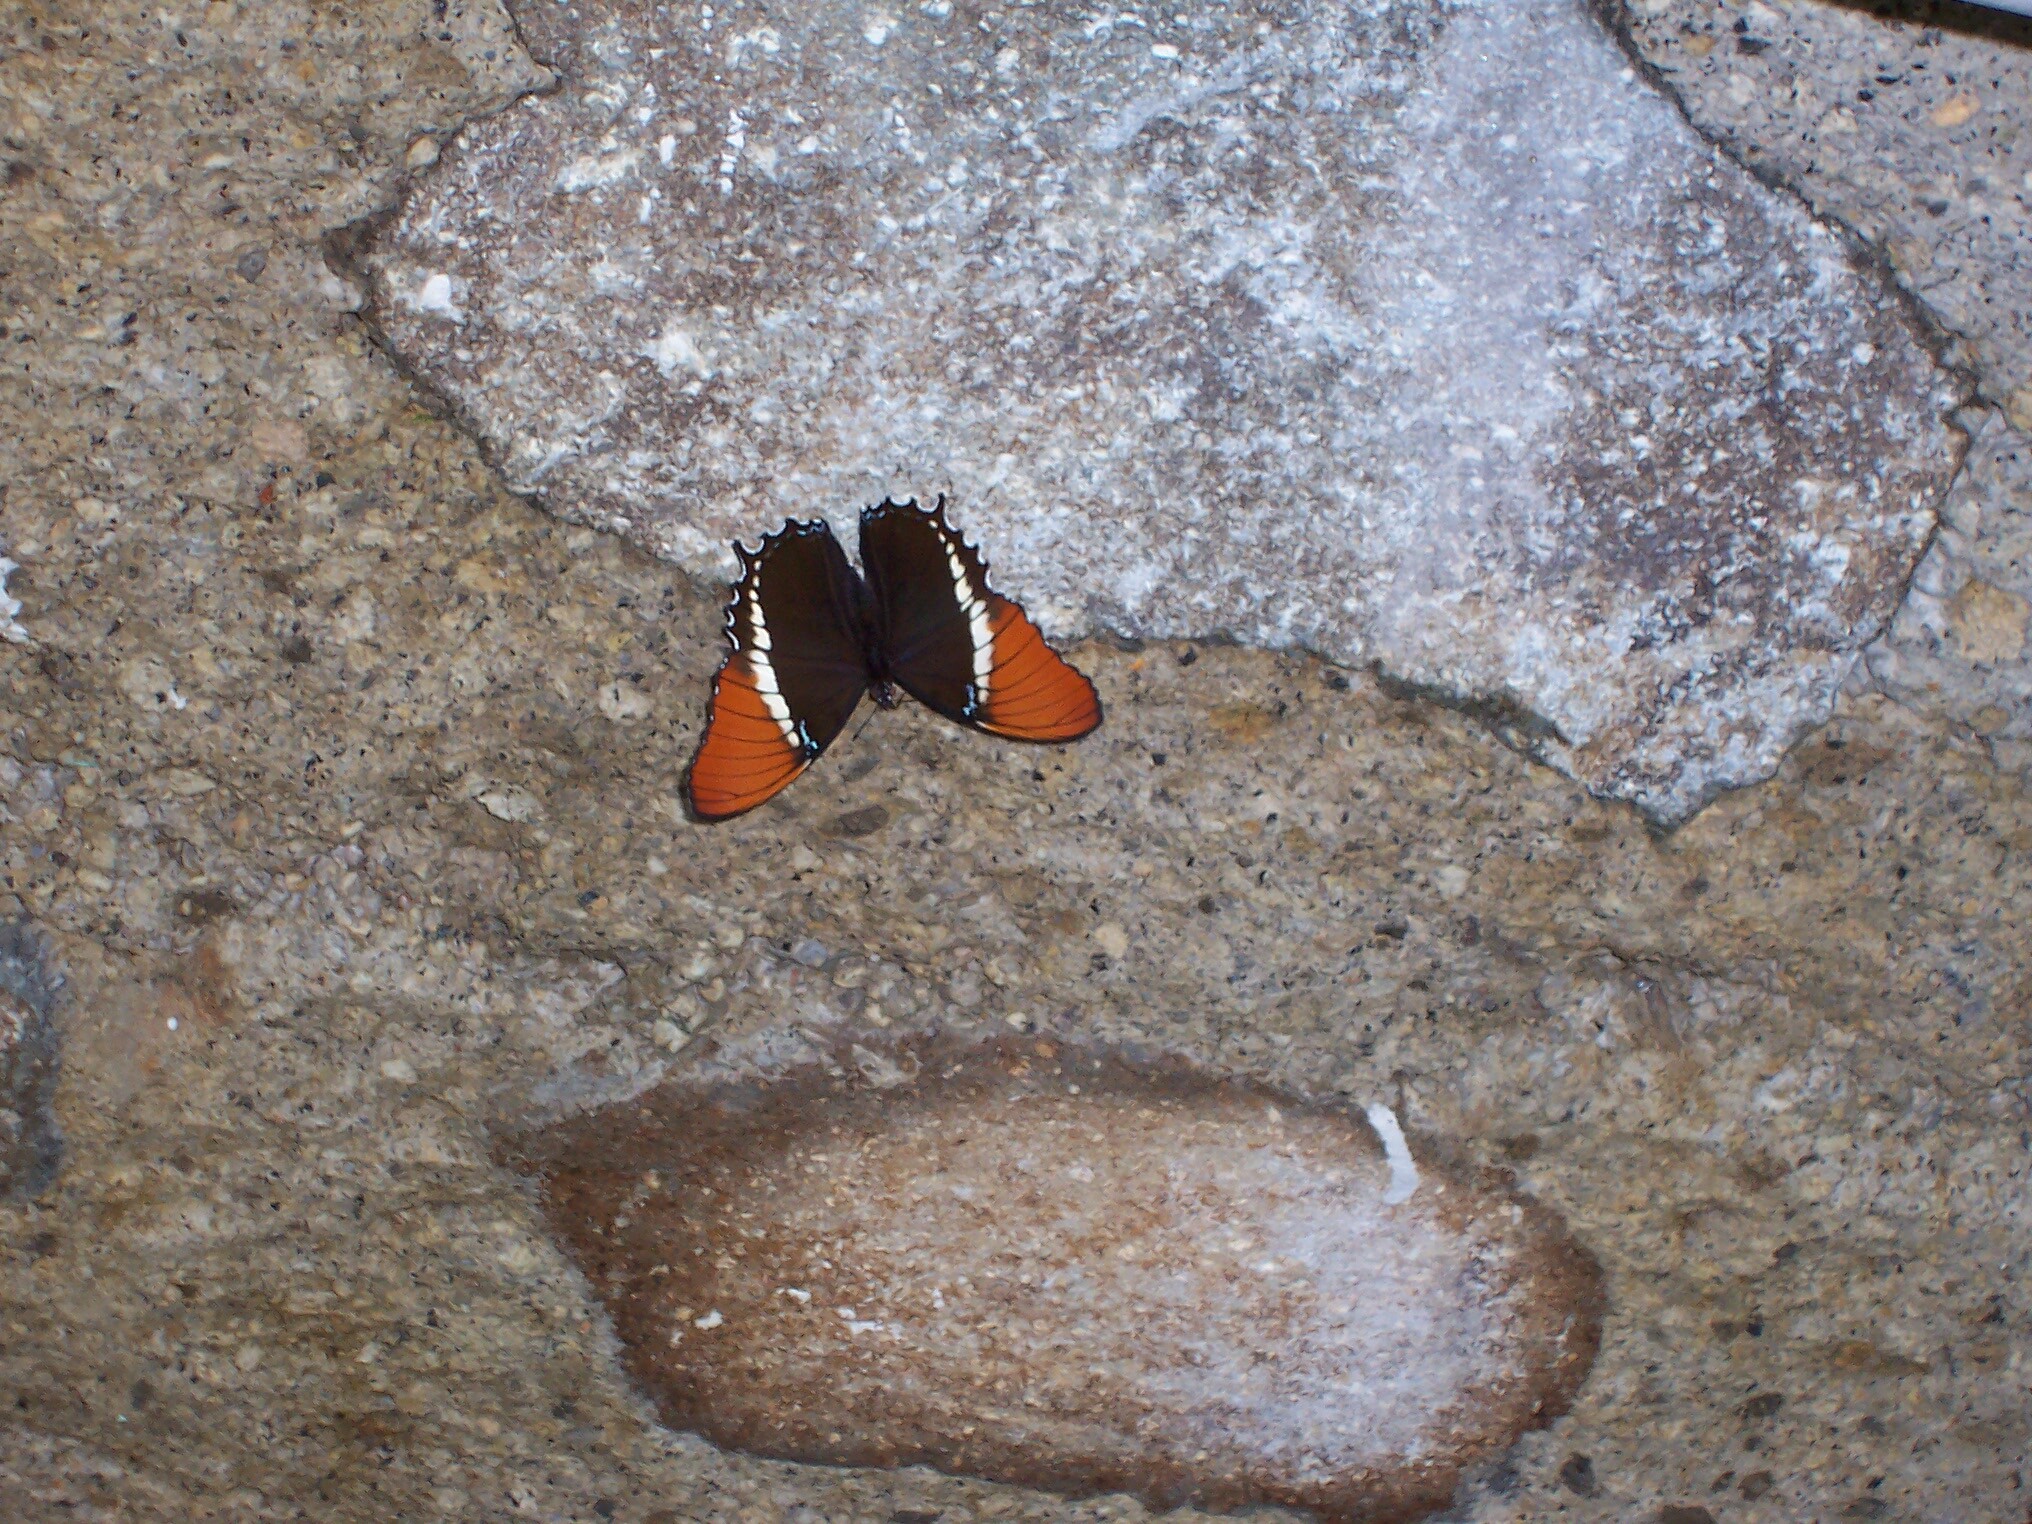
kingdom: Animalia
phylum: Arthropoda
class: Insecta
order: Lepidoptera
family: Nymphalidae
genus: Siproeta
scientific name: Siproeta epaphus
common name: Rusty-tipped page
